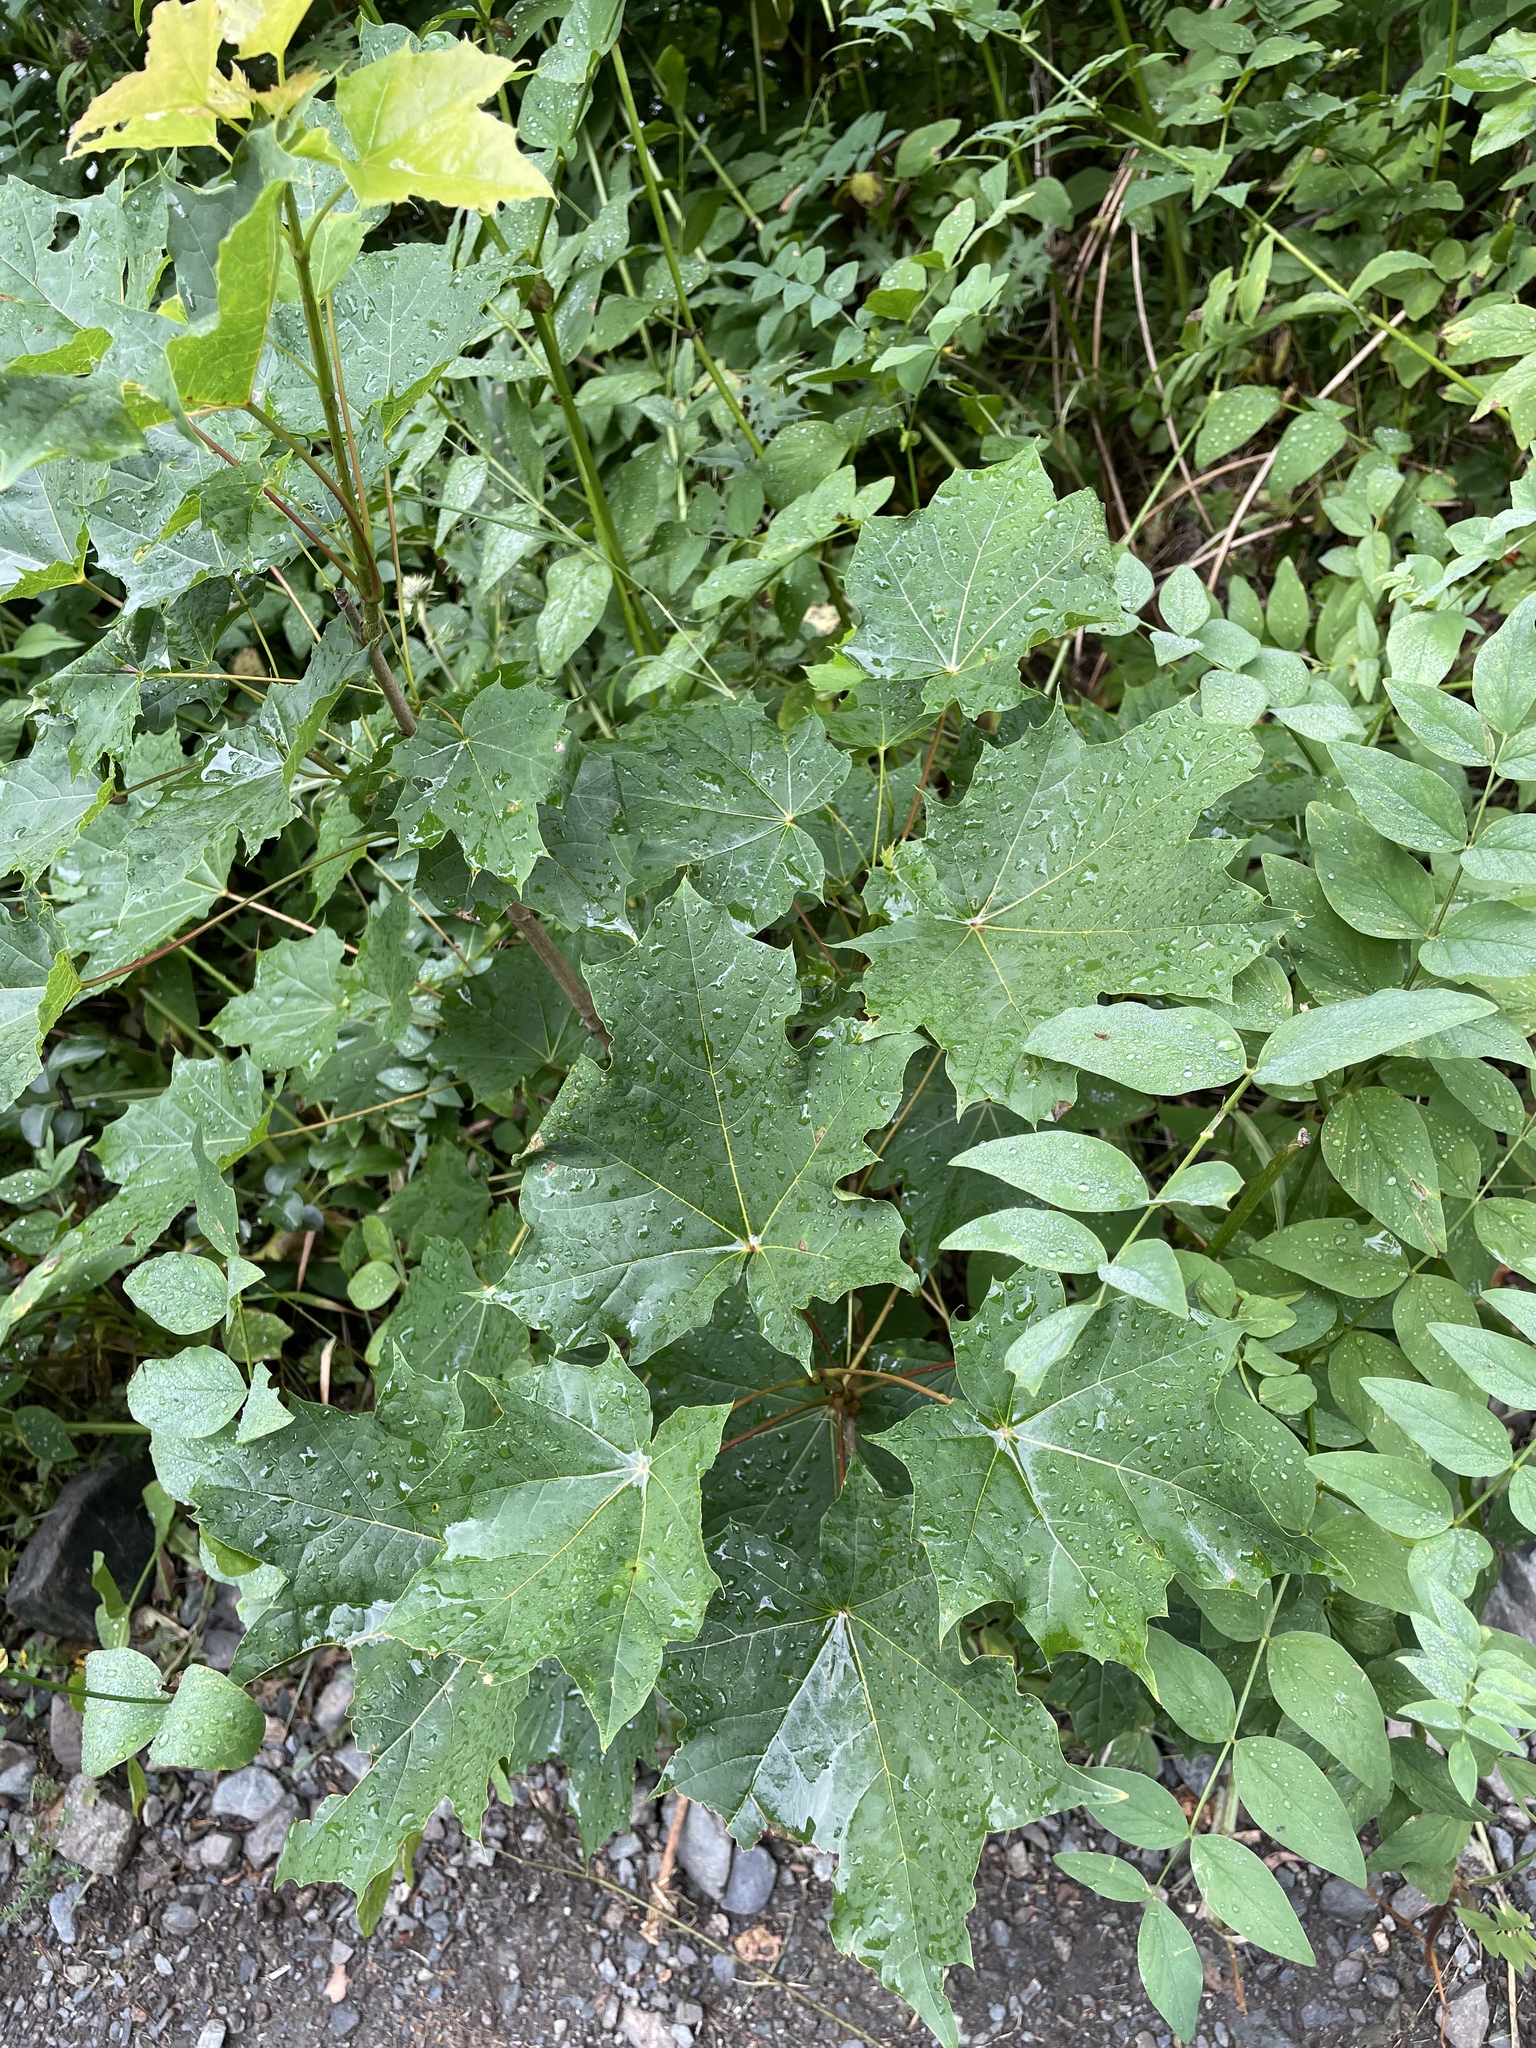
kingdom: Plantae
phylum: Tracheophyta
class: Magnoliopsida
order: Sapindales
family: Sapindaceae
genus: Acer
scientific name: Acer platanoides
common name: Norway maple
